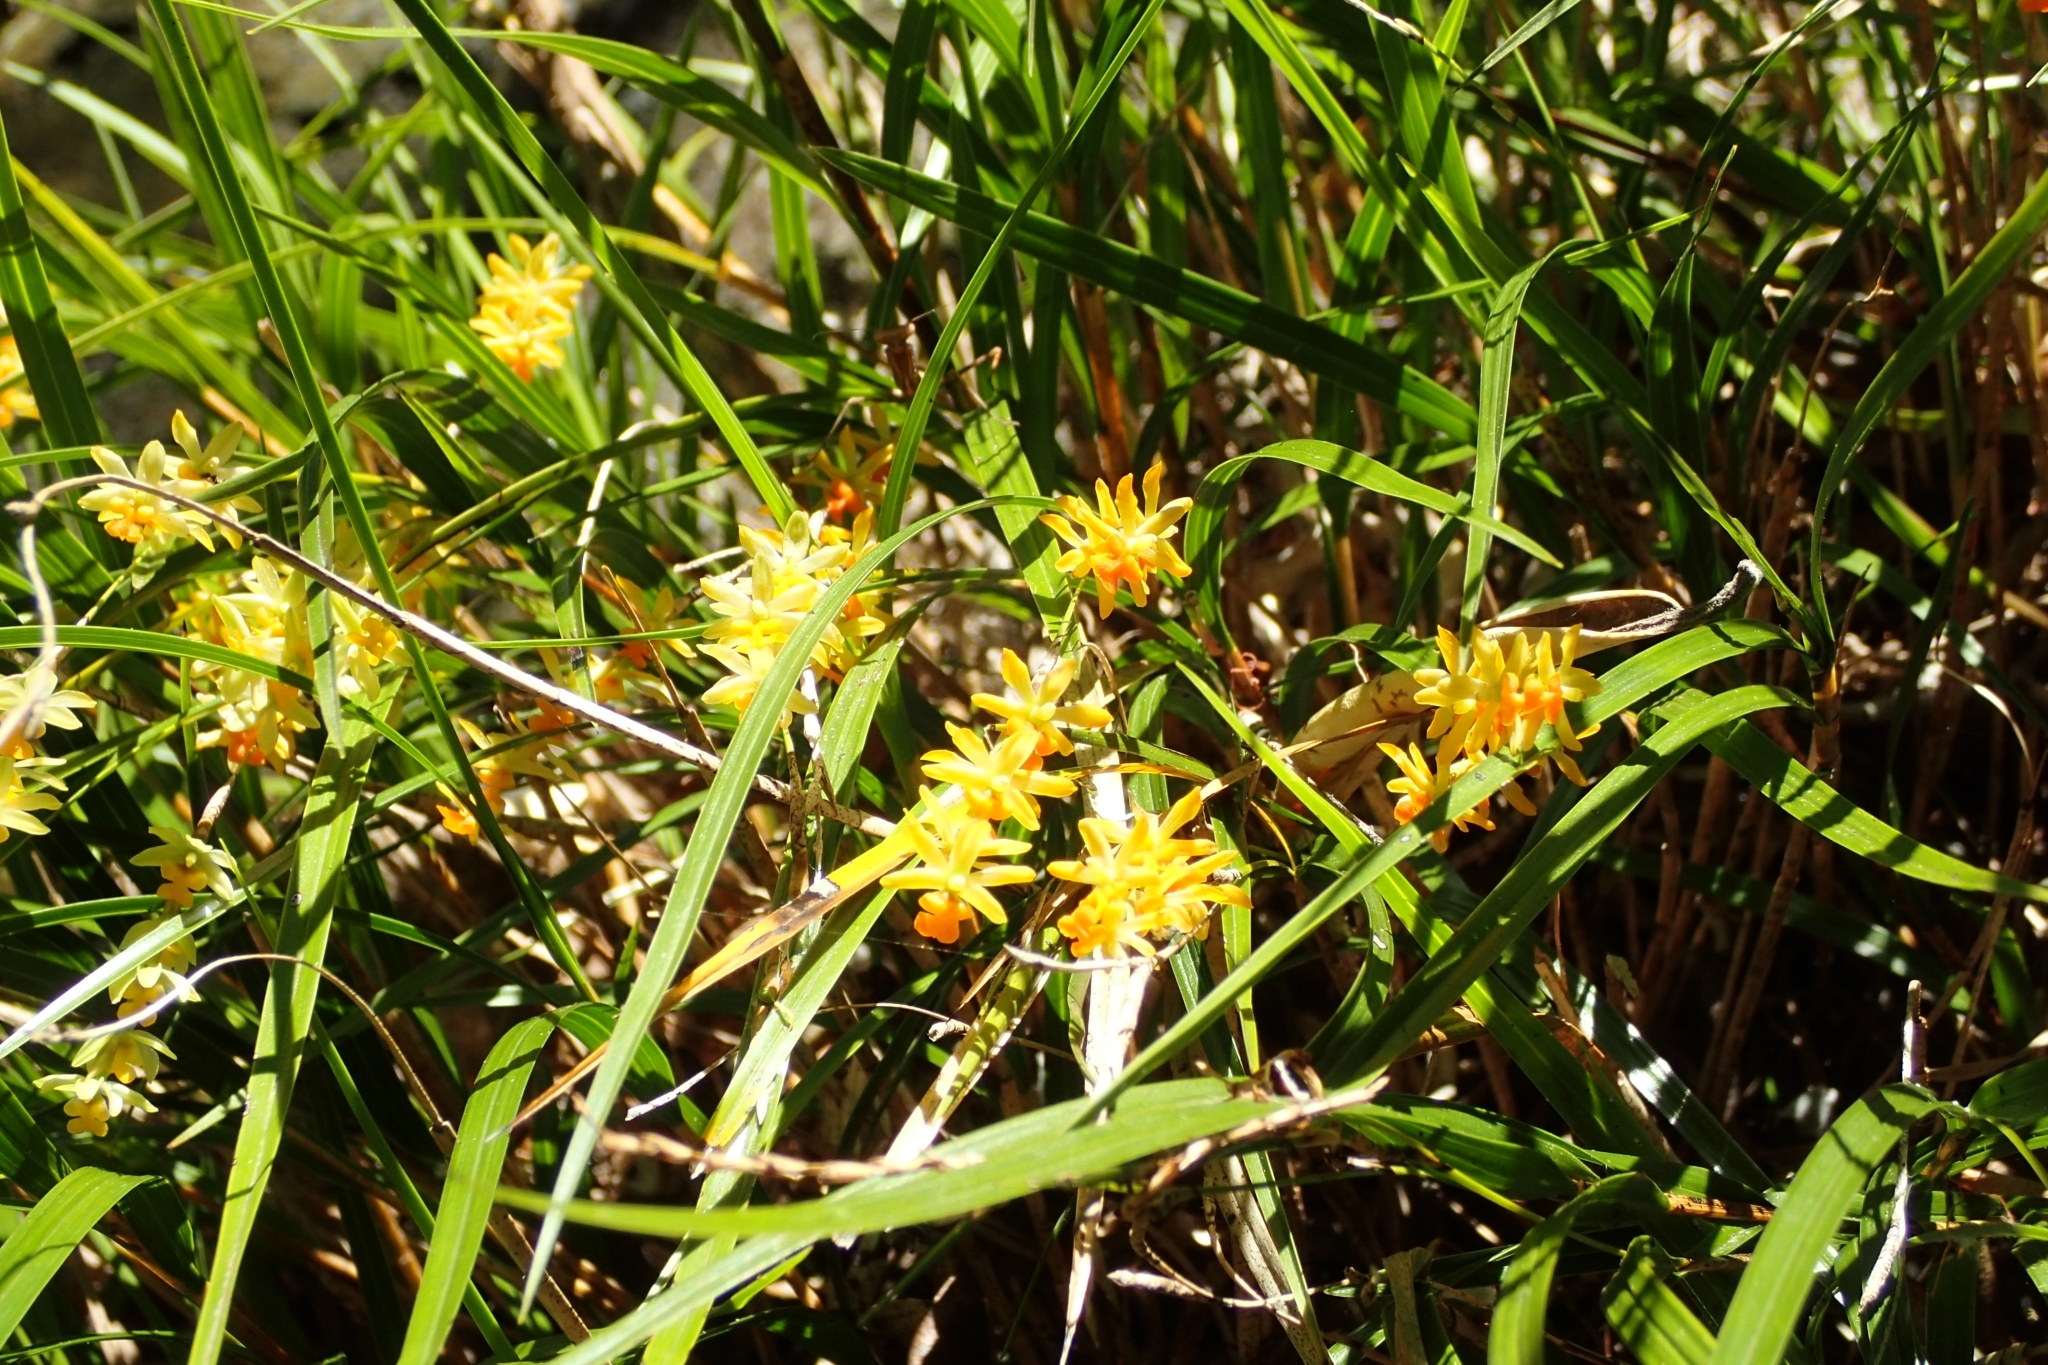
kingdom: Plantae
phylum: Tracheophyta
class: Liliopsida
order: Asparagales
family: Orchidaceae
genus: Earina
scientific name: Earina mucronata
